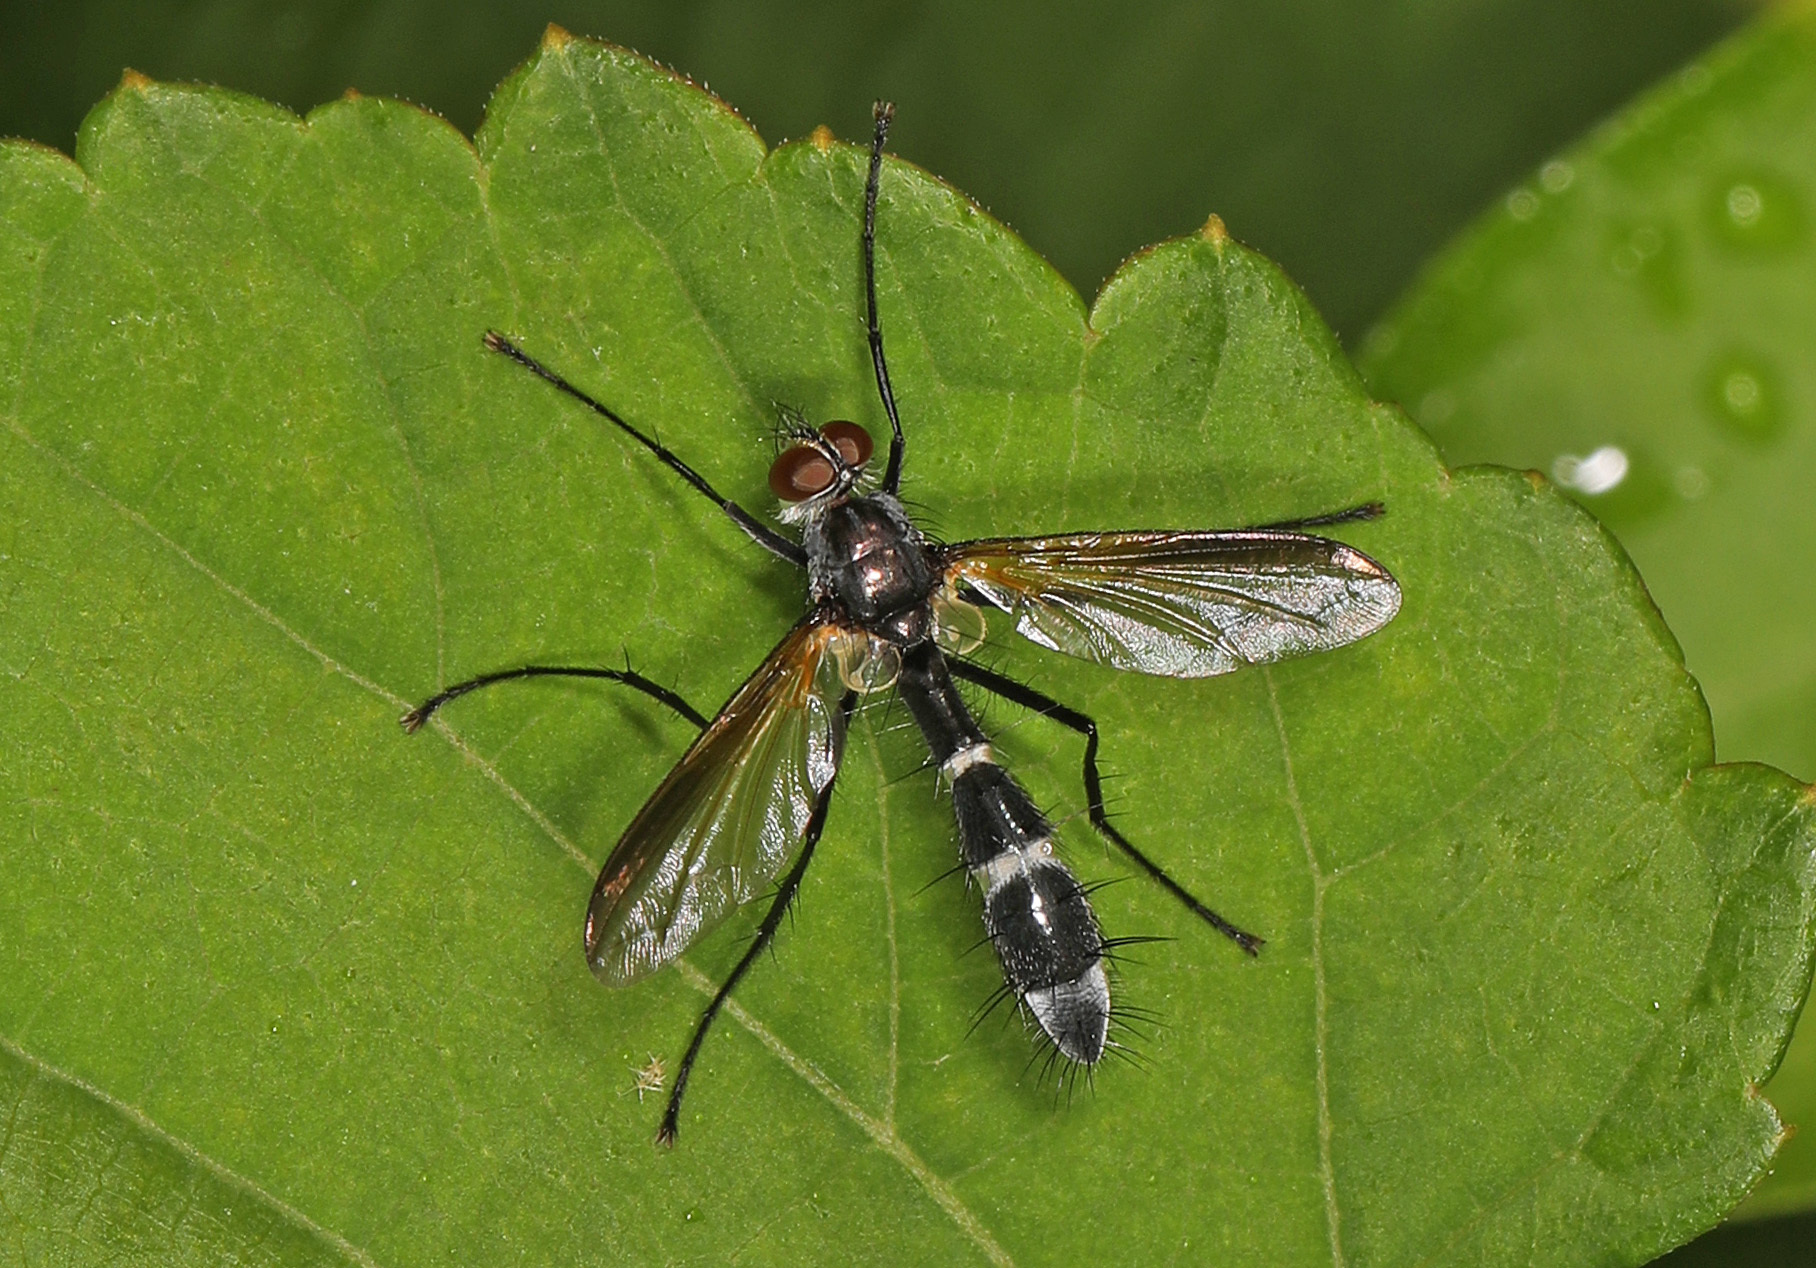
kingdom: Animalia
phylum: Arthropoda
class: Insecta
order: Diptera
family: Tachinidae
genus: Cordyligaster
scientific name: Cordyligaster septentrionalis
